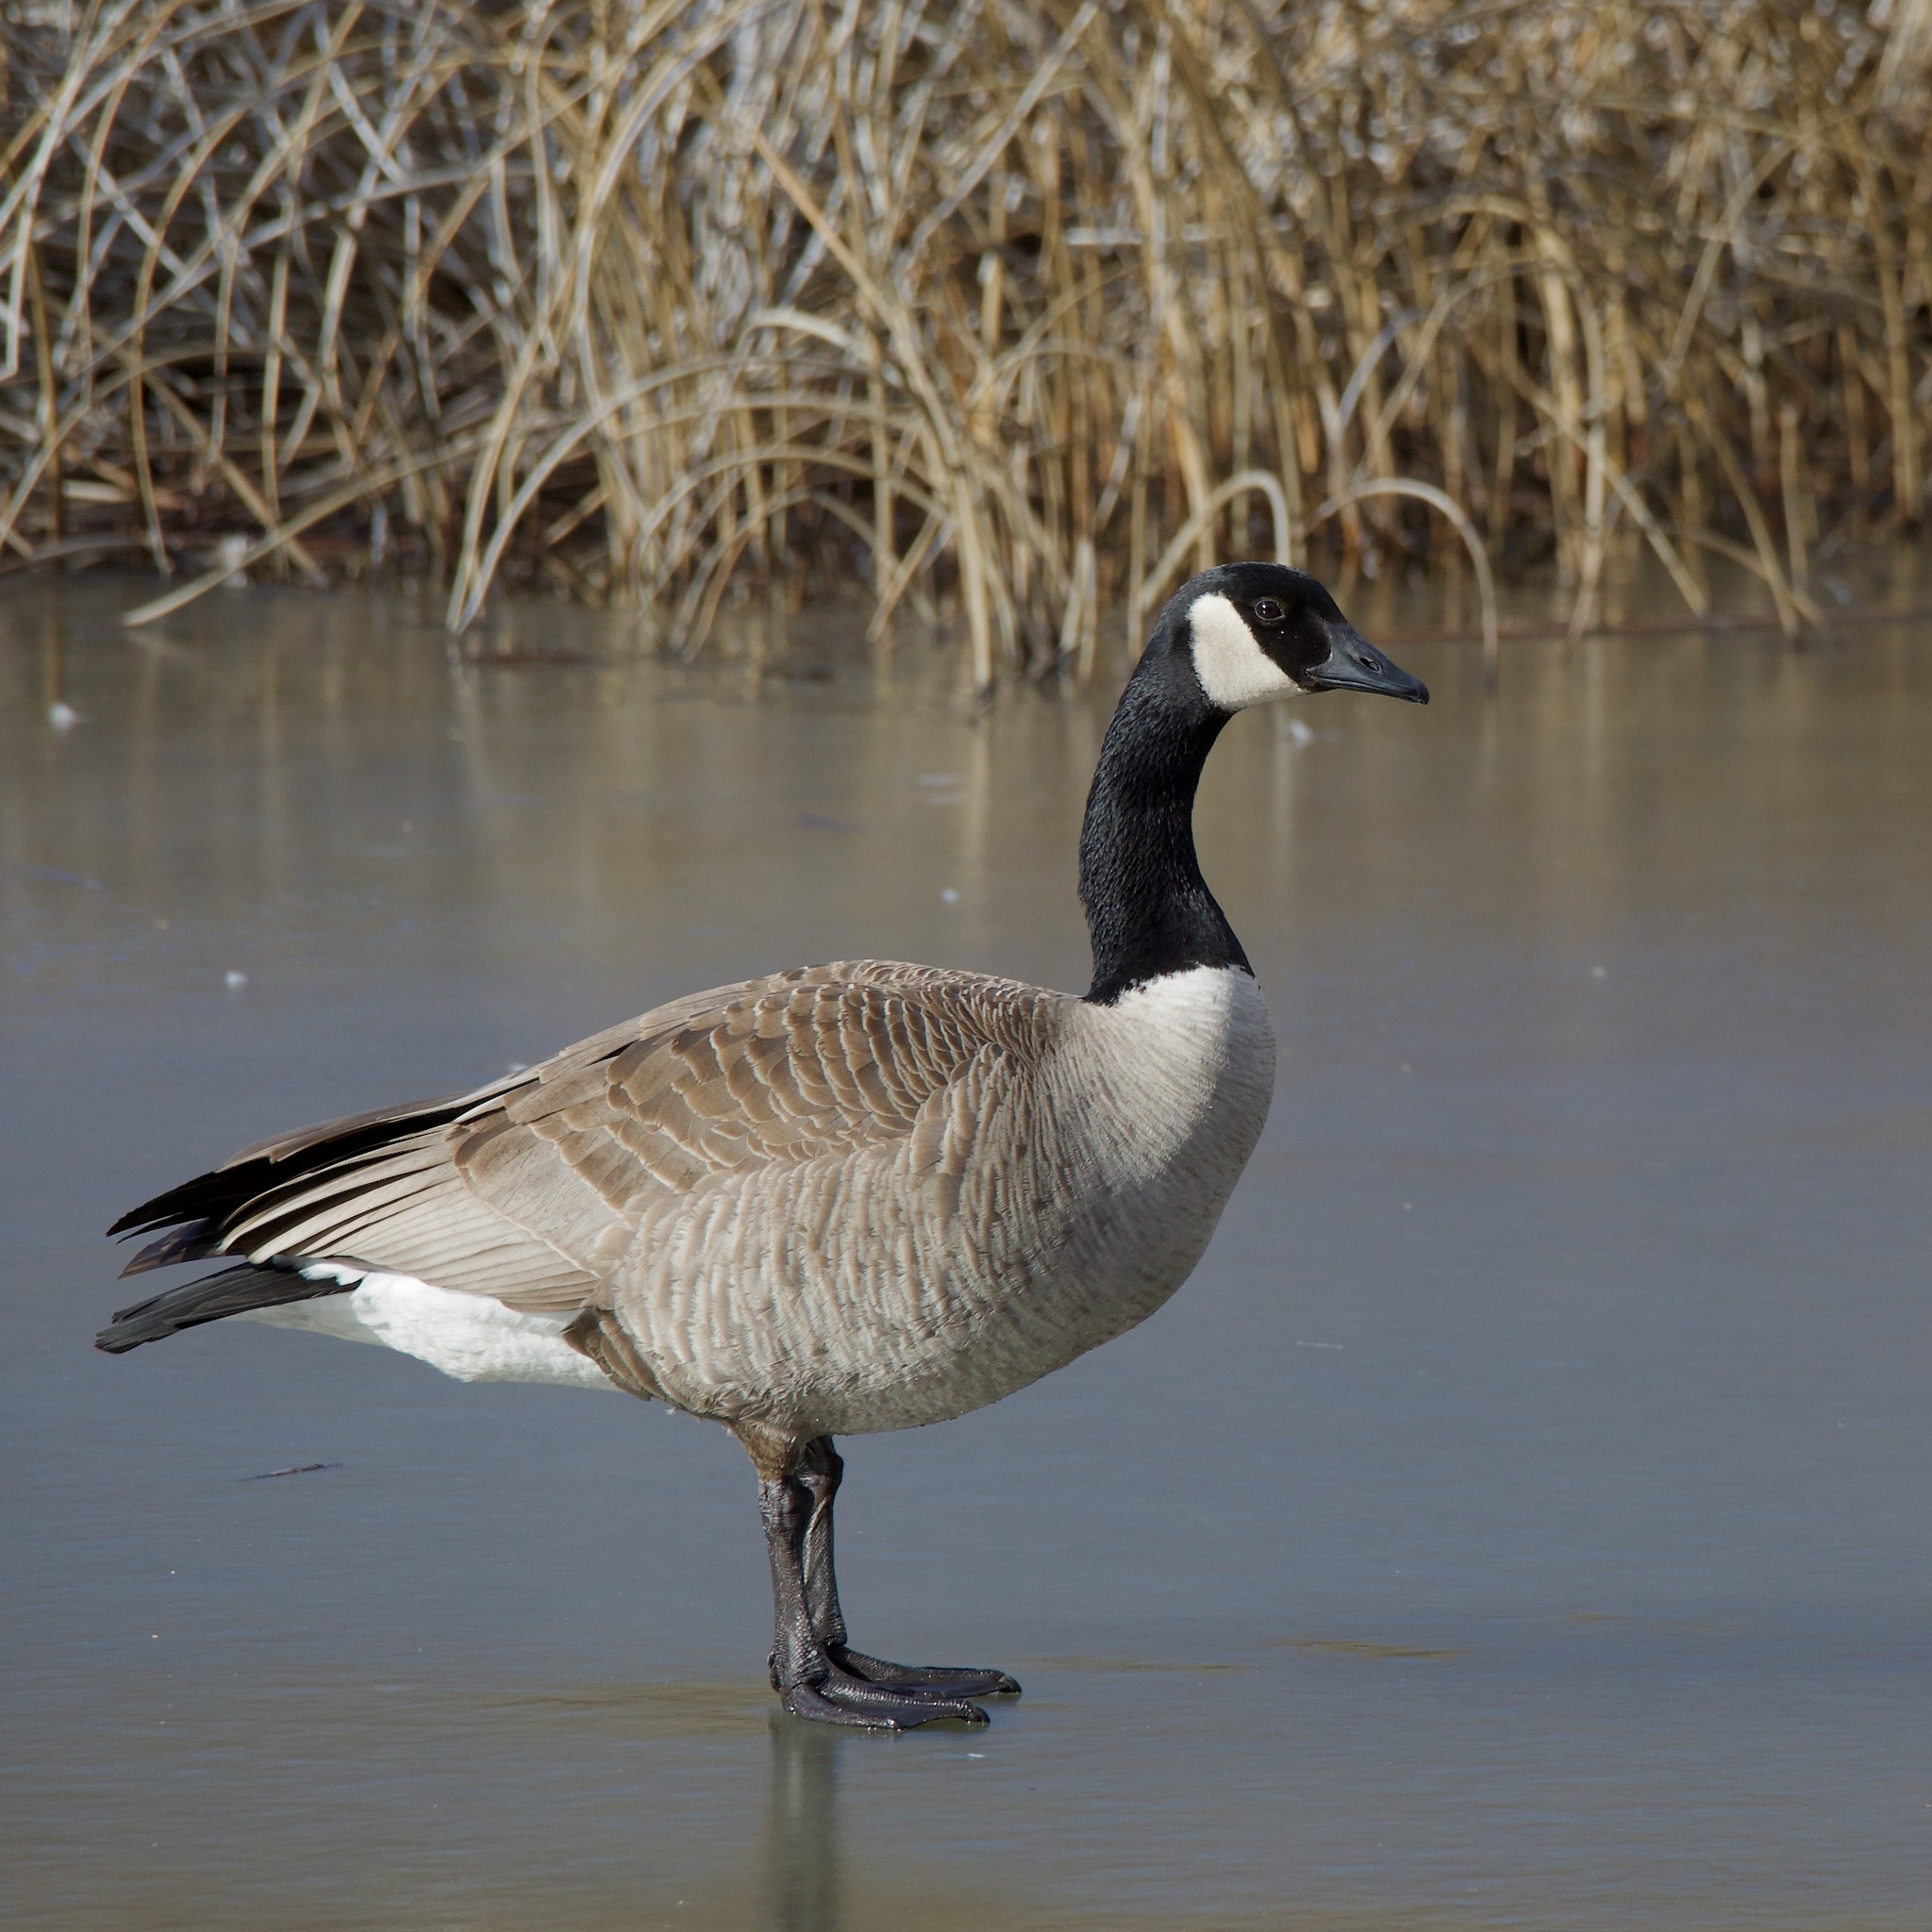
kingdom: Animalia
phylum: Chordata
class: Aves
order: Anseriformes
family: Anatidae
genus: Branta
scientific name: Branta canadensis
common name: Canada goose
